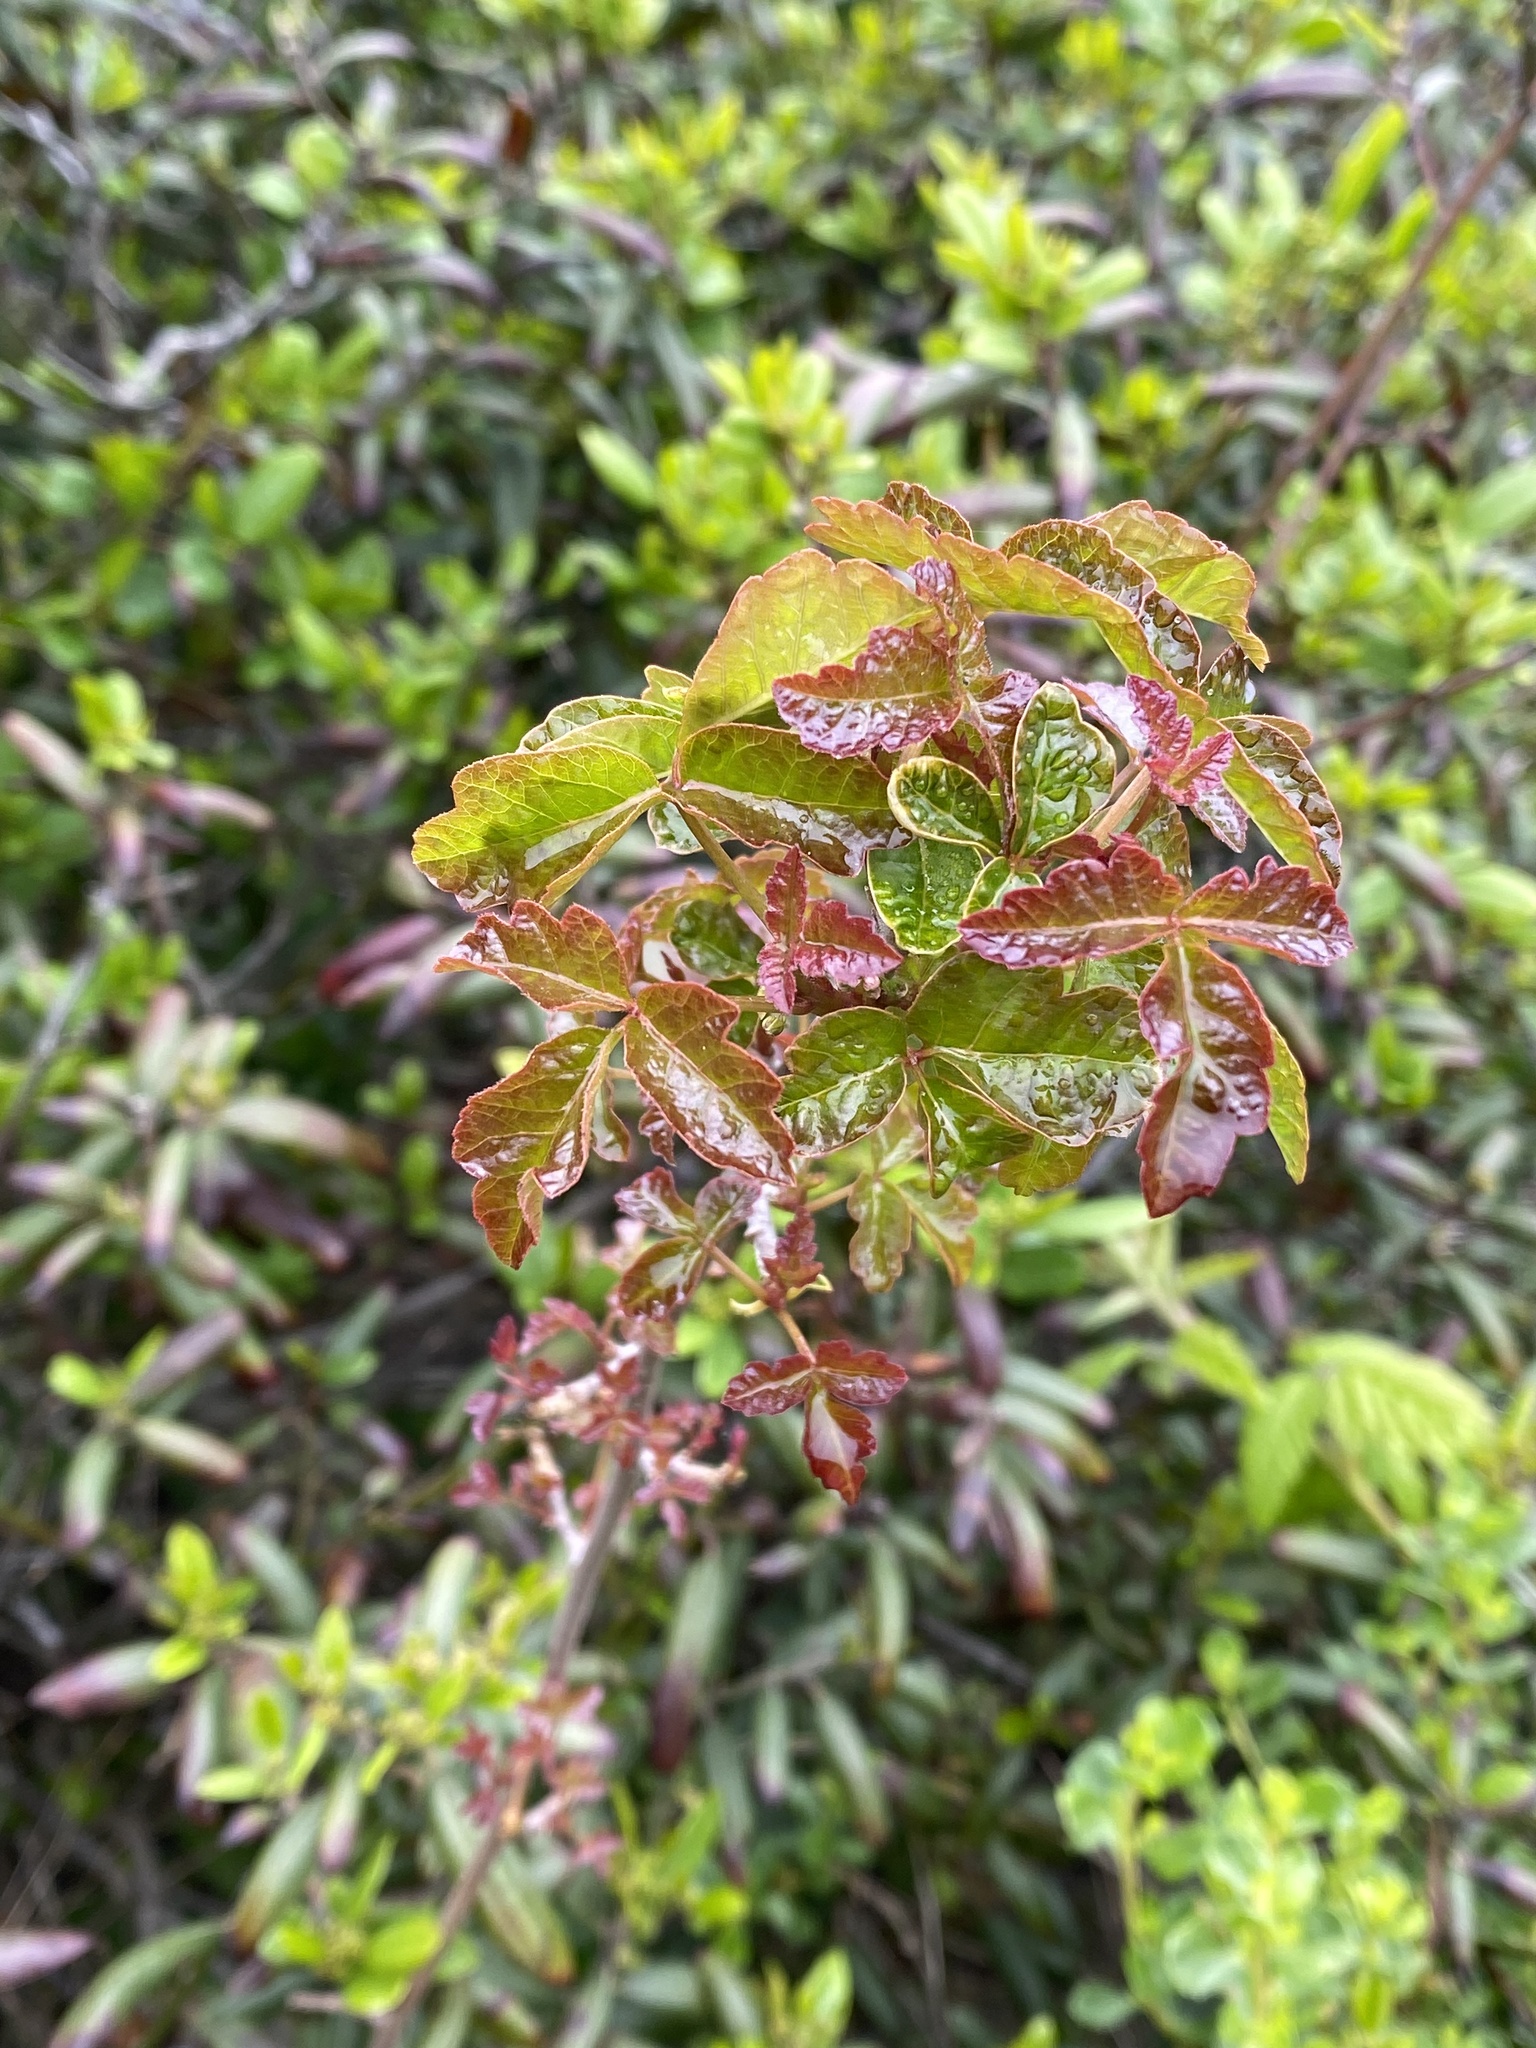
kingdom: Plantae
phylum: Tracheophyta
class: Magnoliopsida
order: Sapindales
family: Anacardiaceae
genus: Toxicodendron
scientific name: Toxicodendron diversilobum
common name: Pacific poison-oak
